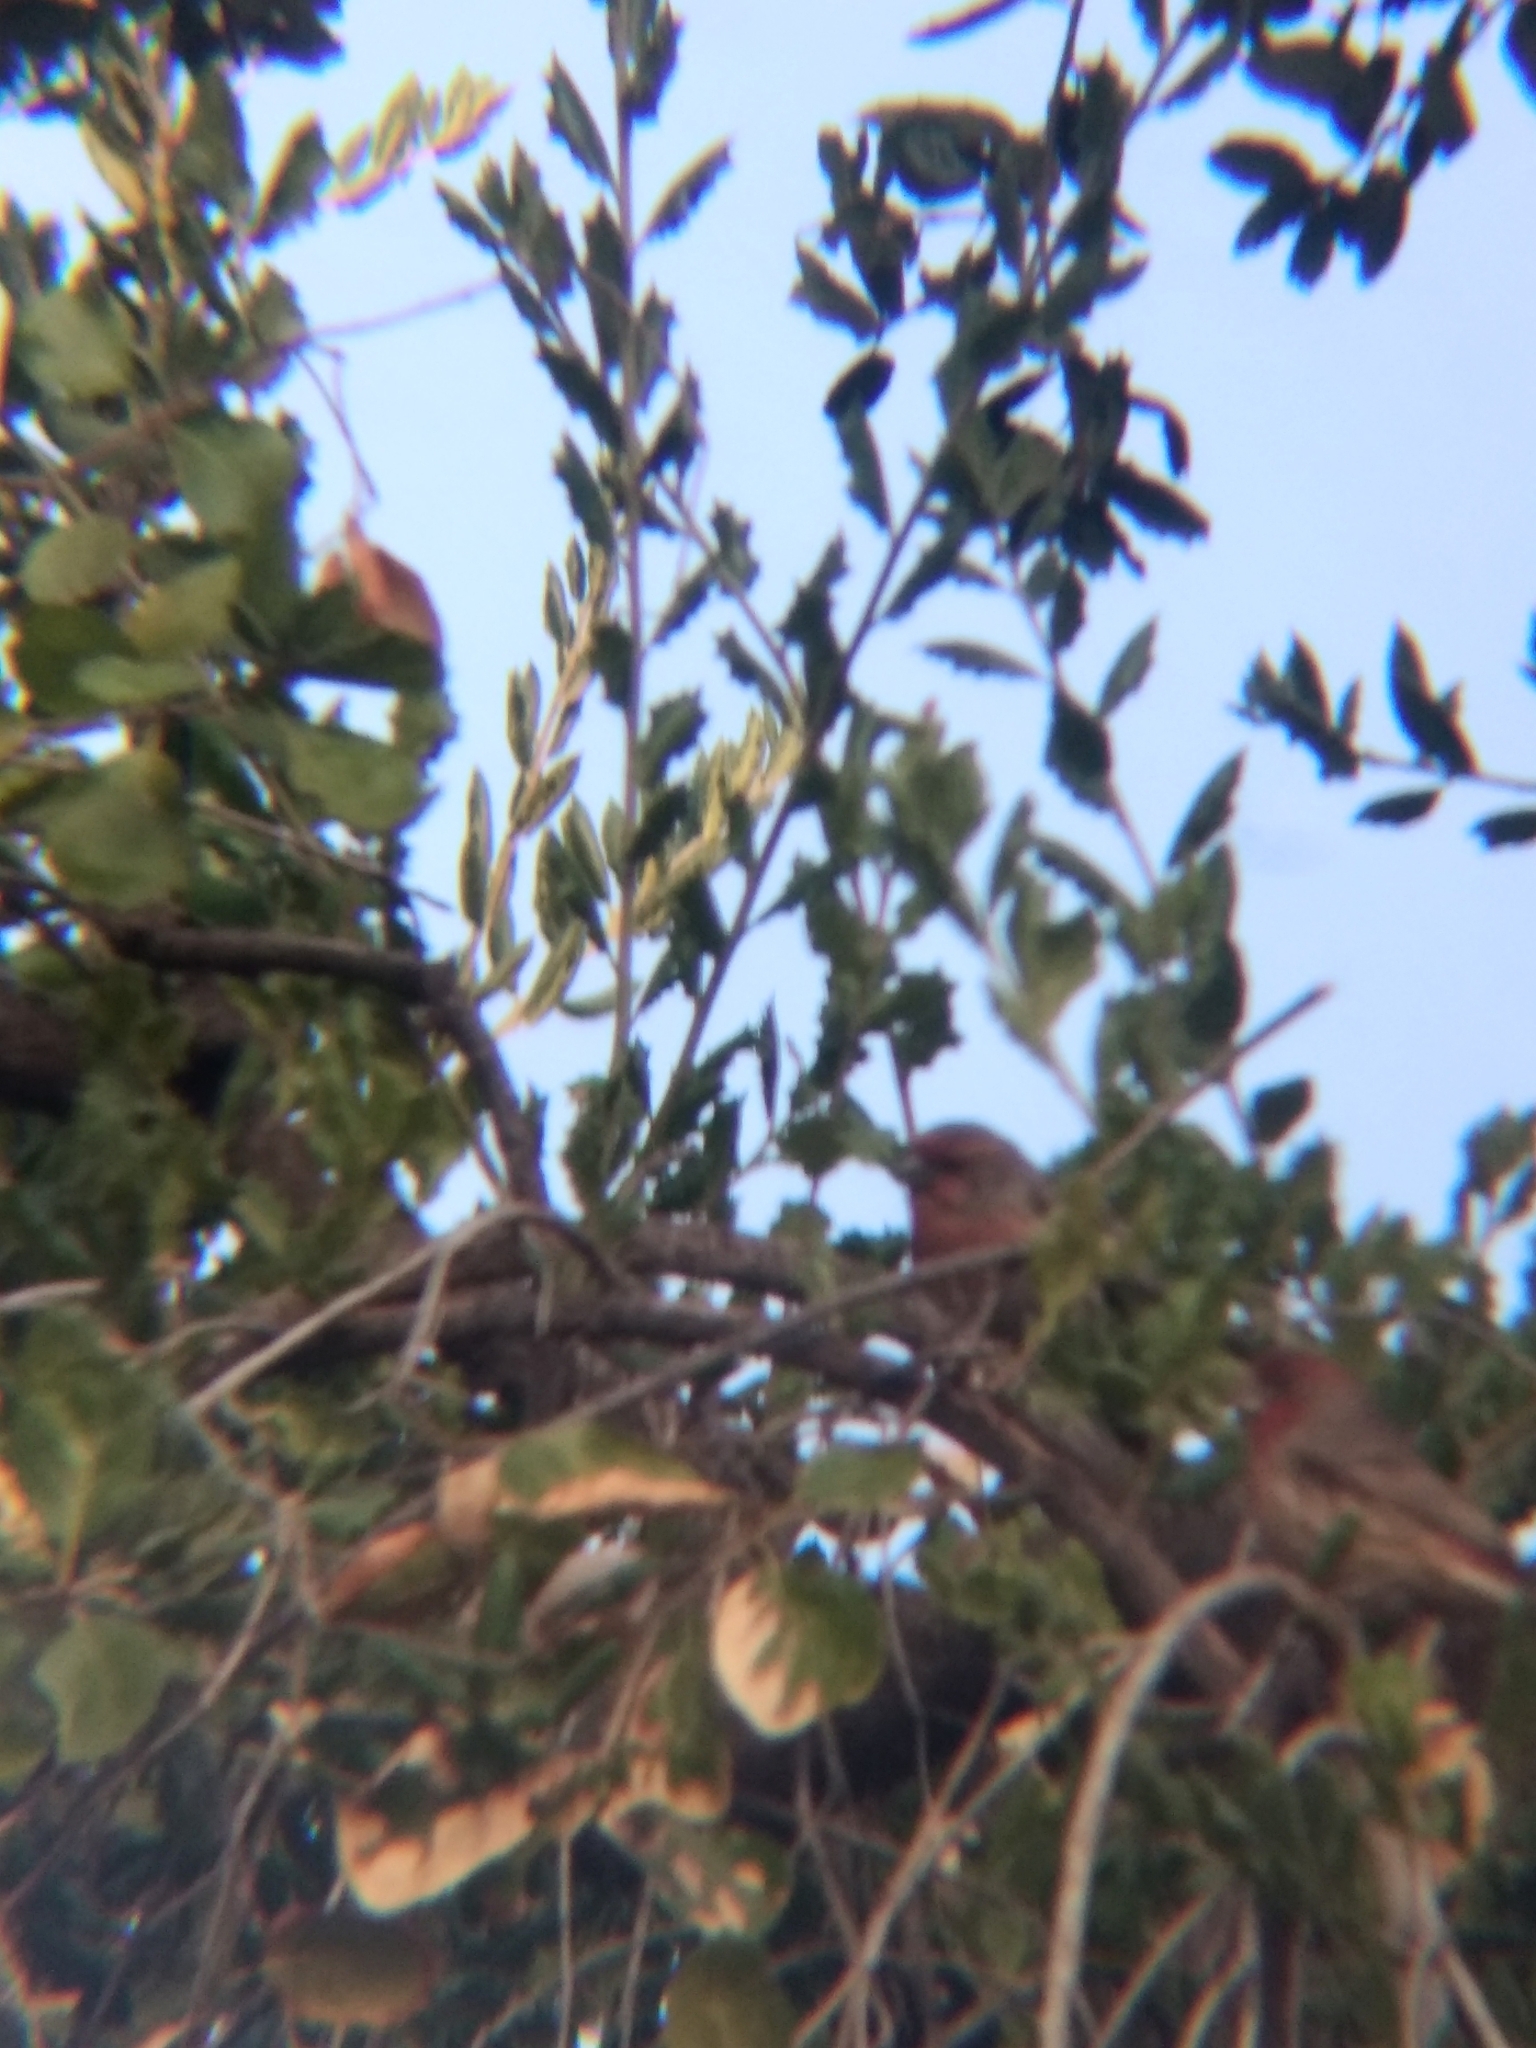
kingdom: Animalia
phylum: Chordata
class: Aves
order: Passeriformes
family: Fringillidae
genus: Haemorhous
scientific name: Haemorhous mexicanus
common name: House finch
